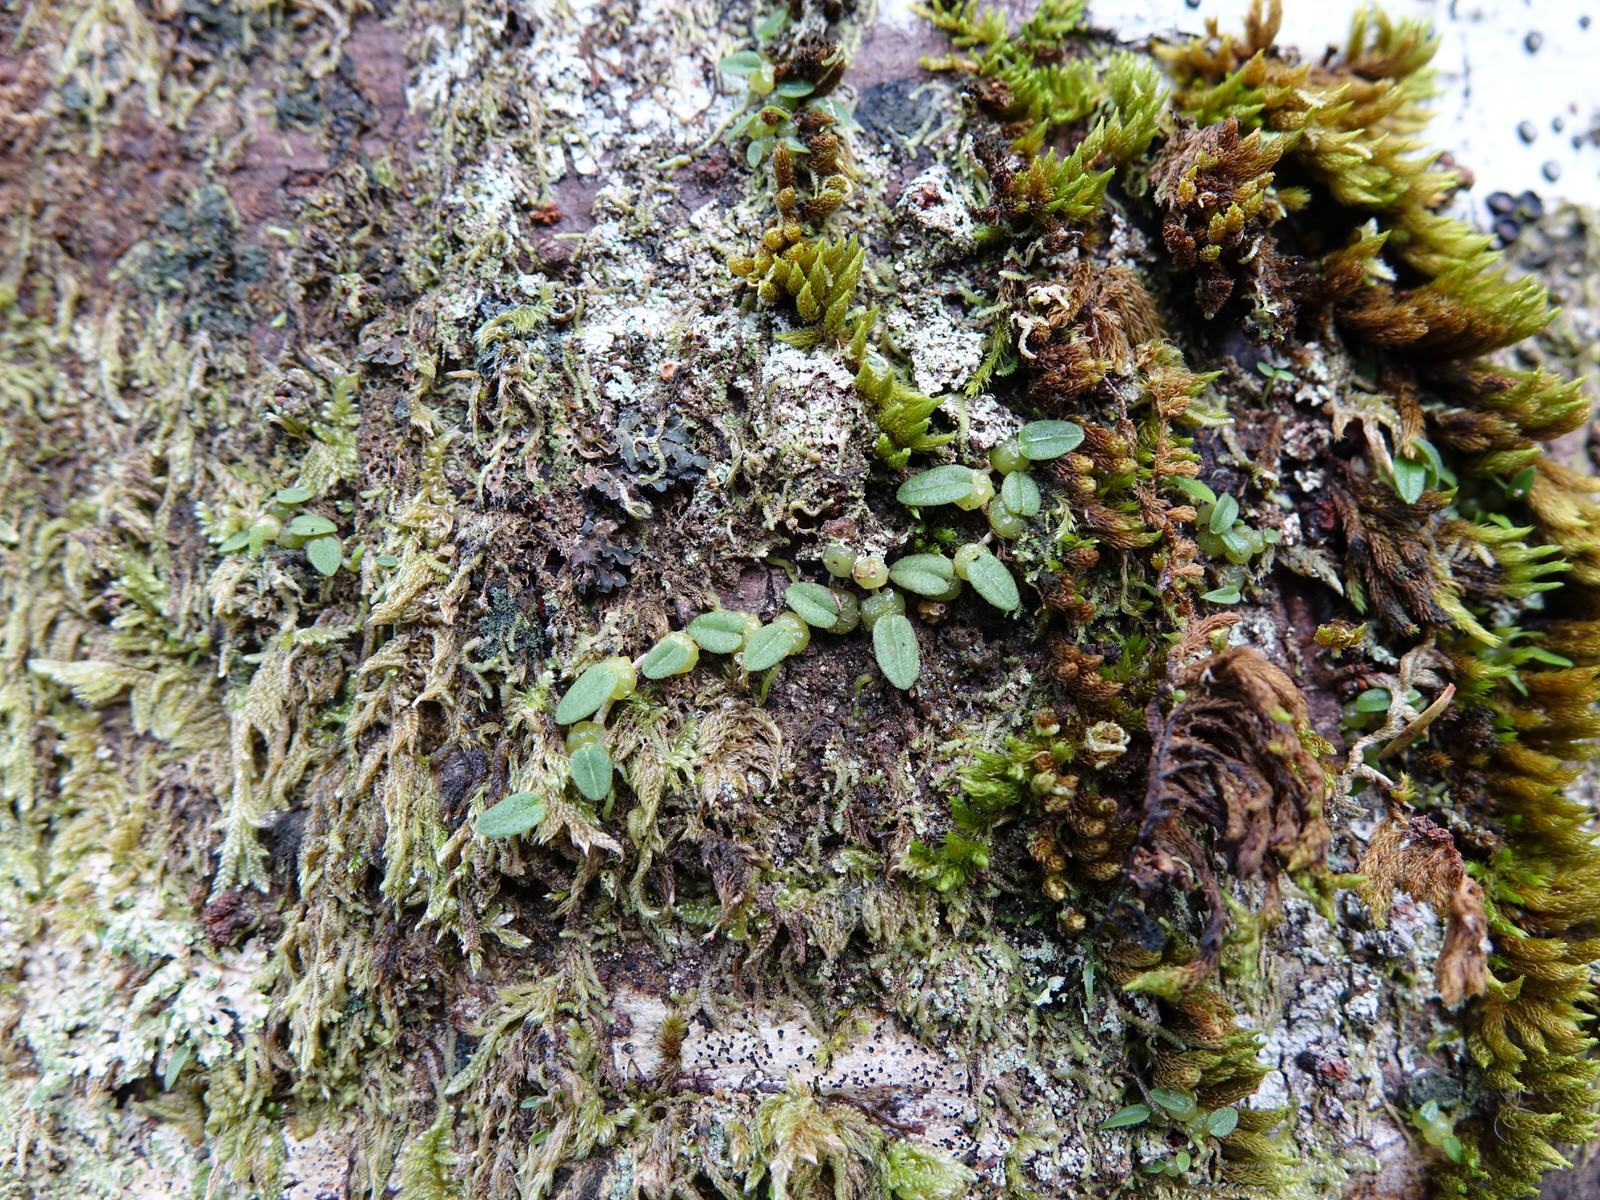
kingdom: Plantae
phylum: Tracheophyta
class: Liliopsida
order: Asparagales
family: Orchidaceae
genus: Bulbophyllum
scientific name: Bulbophyllum pygmaeum
